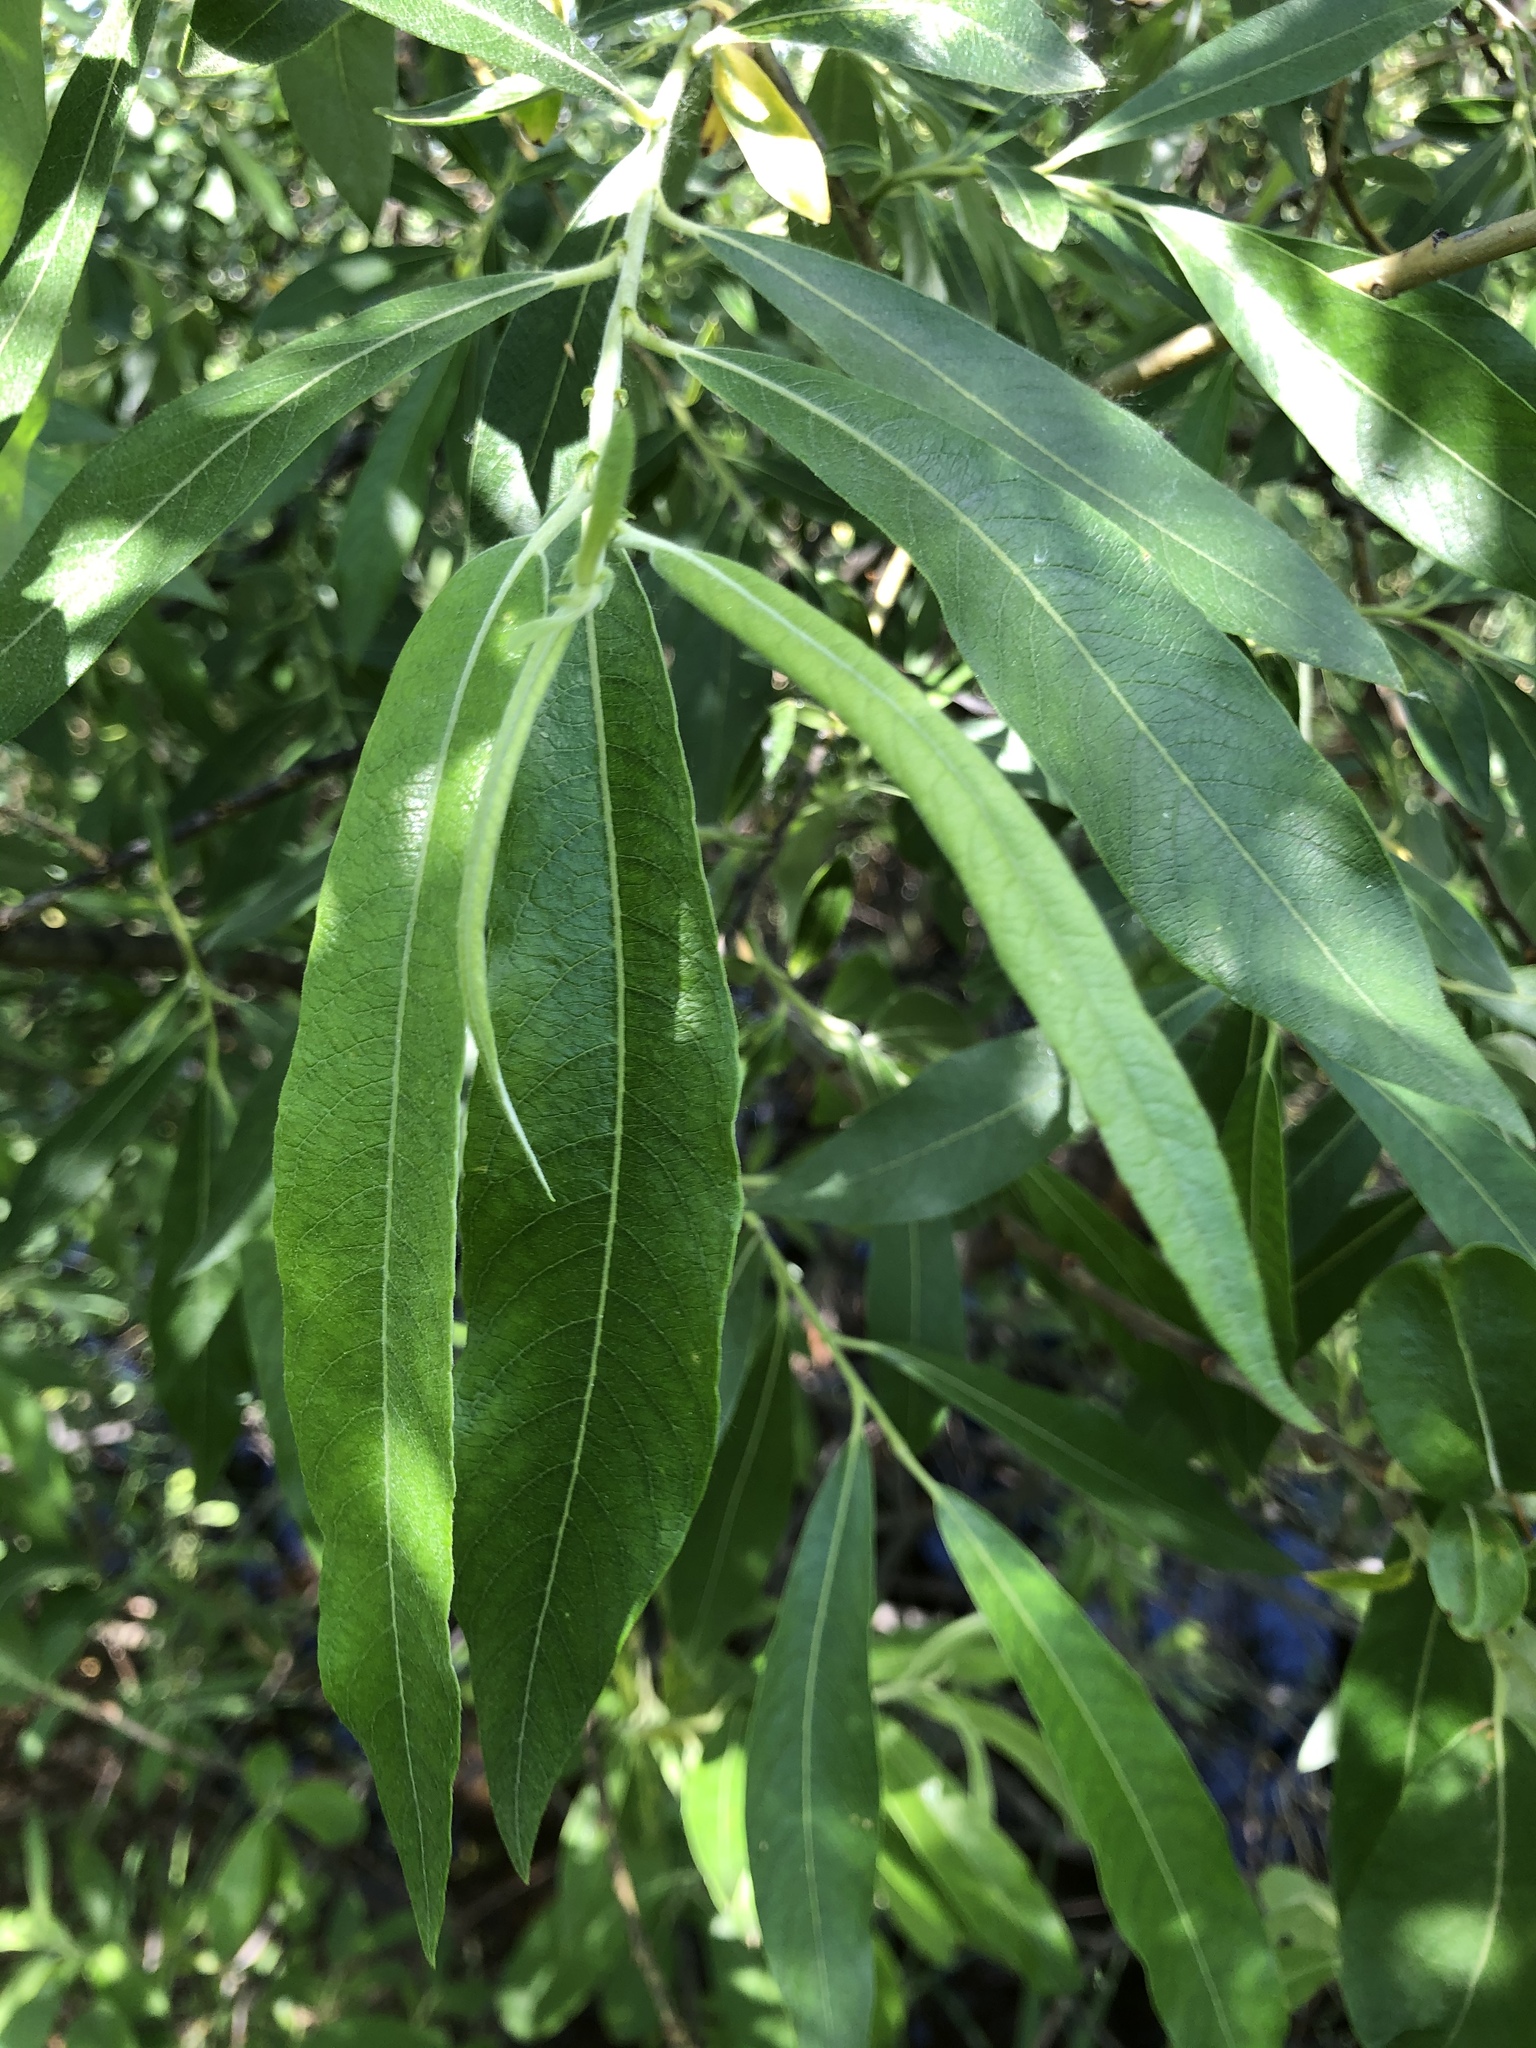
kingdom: Plantae
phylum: Tracheophyta
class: Magnoliopsida
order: Malpighiales
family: Salicaceae
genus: Salix
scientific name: Salix gmelinii
